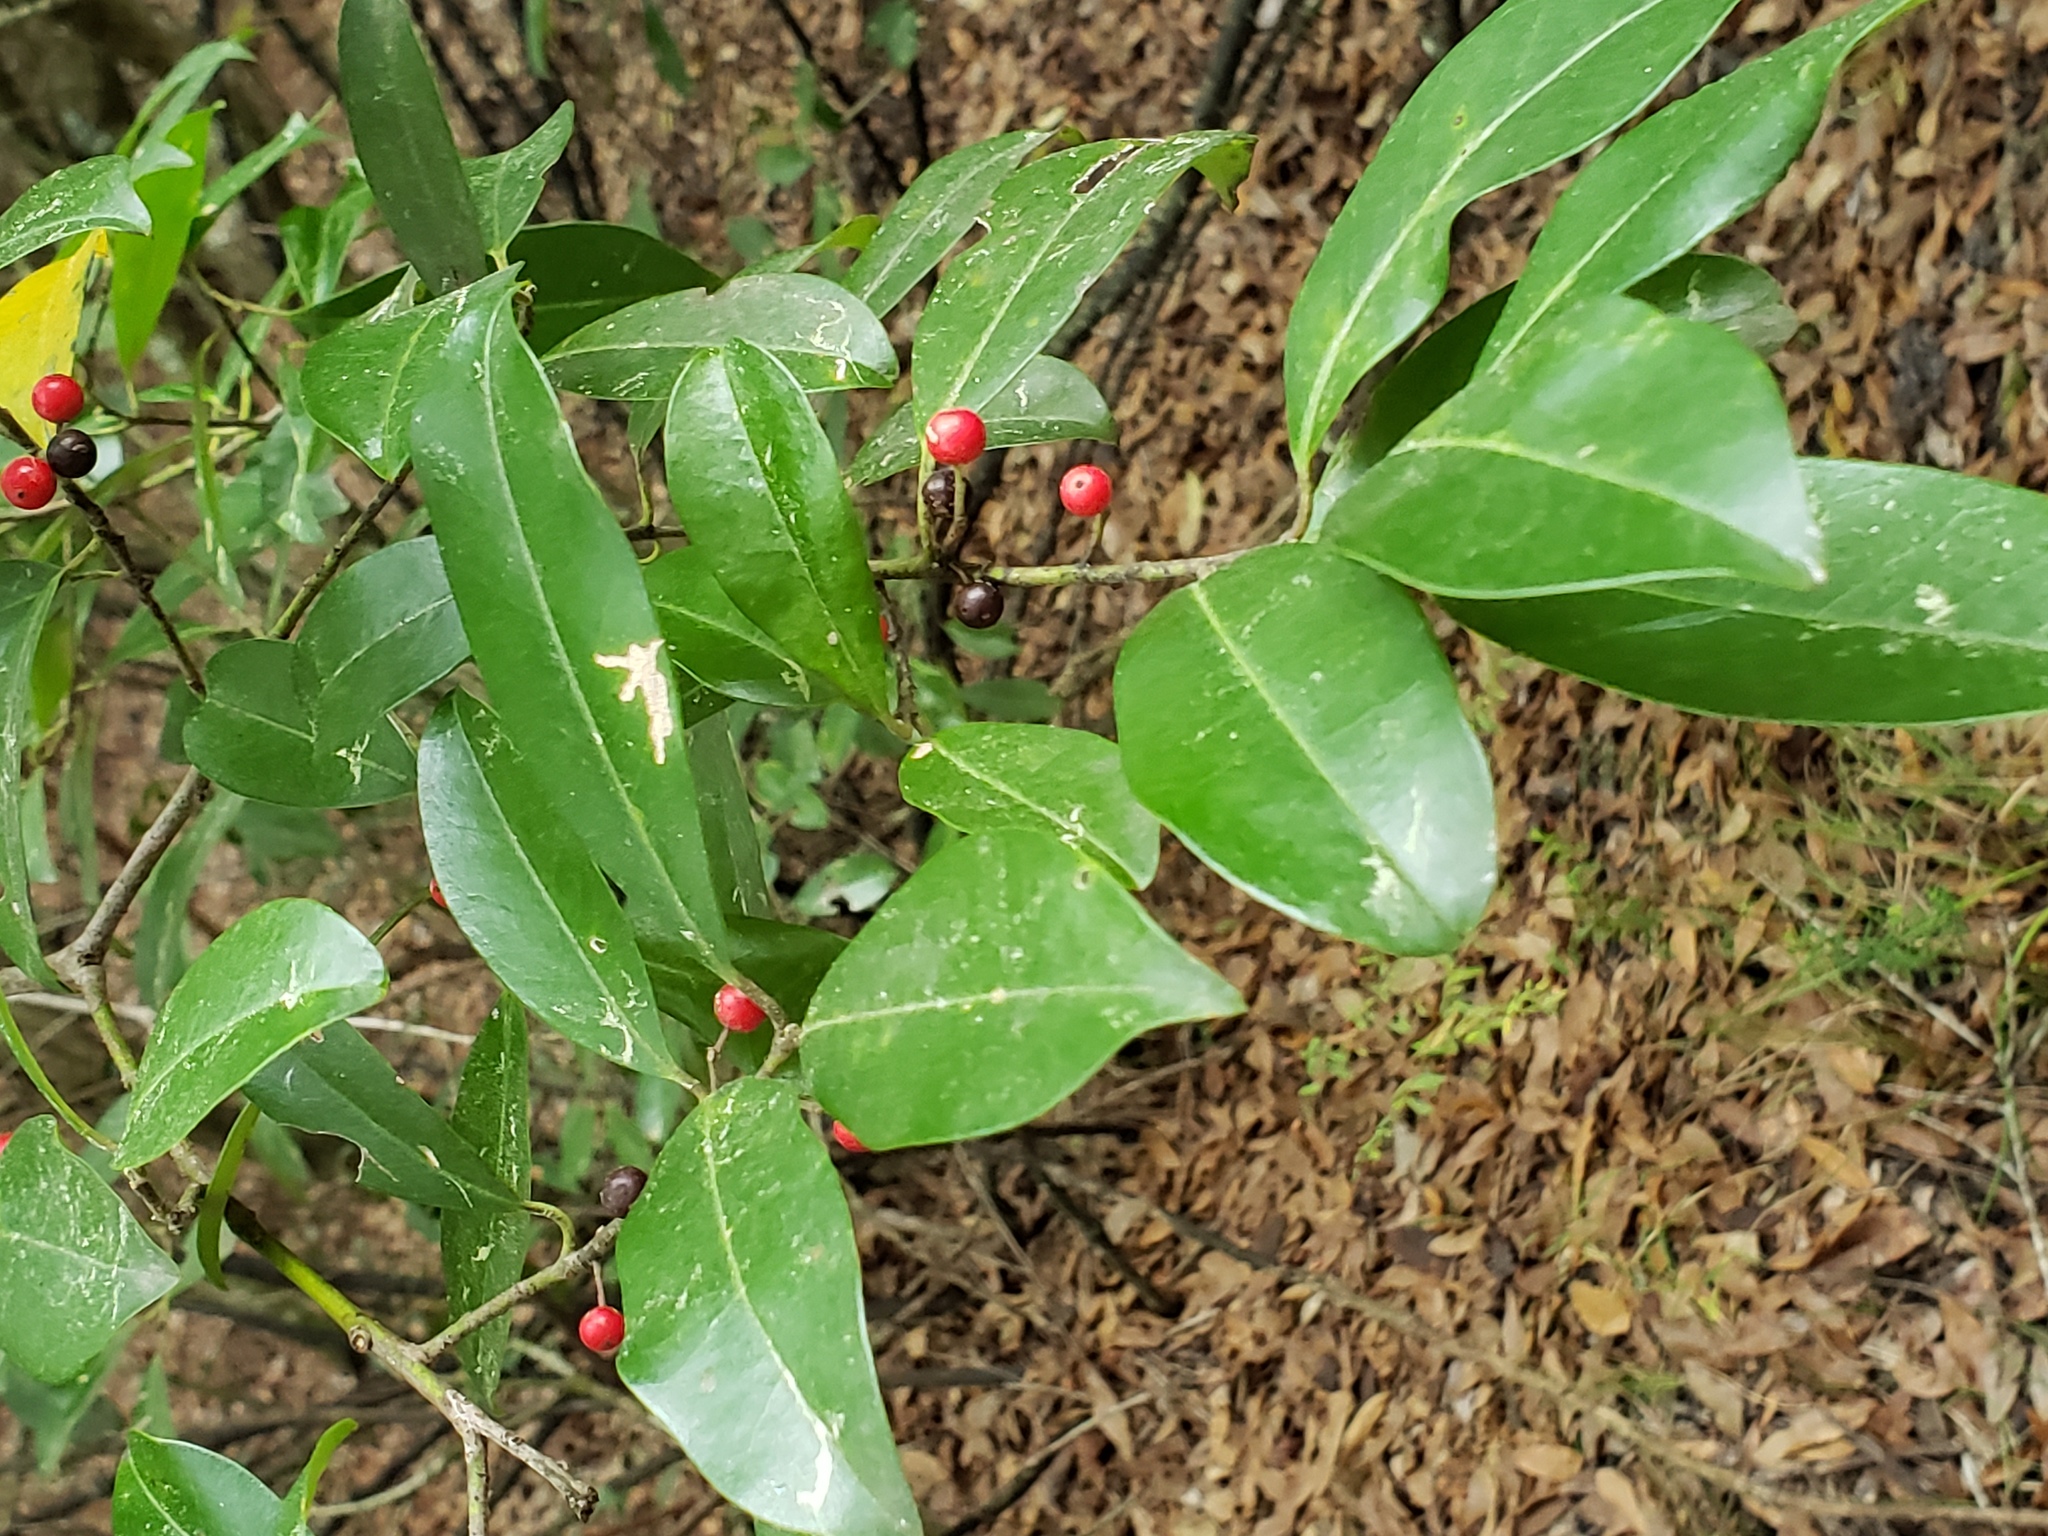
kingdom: Plantae
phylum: Tracheophyta
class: Magnoliopsida
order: Aquifoliales
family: Aquifoliaceae
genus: Ilex
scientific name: Ilex cassine
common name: Dahoon
